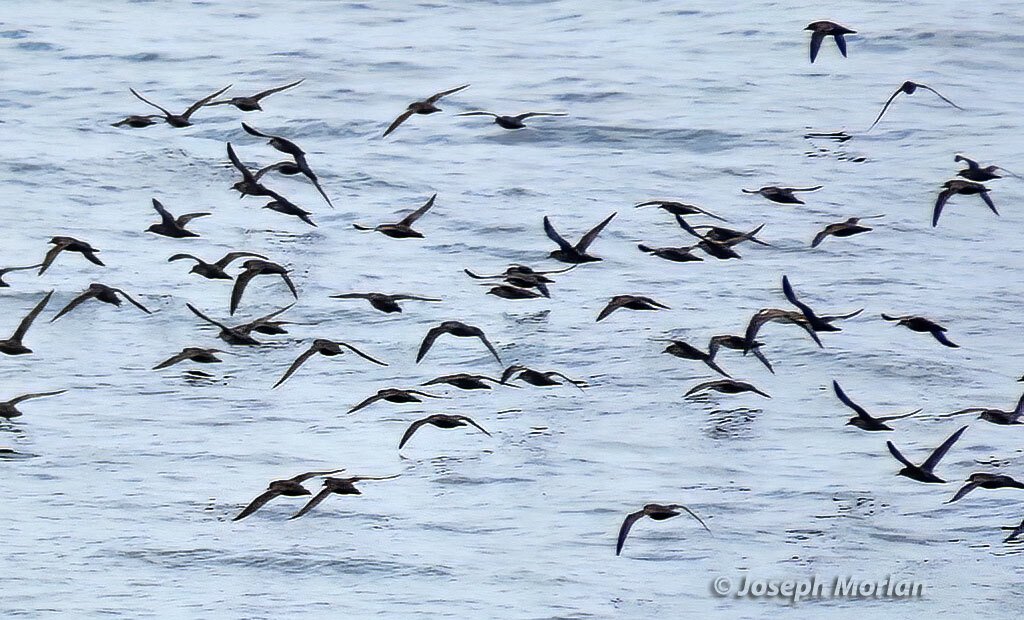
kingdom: Animalia
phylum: Chordata
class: Aves
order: Procellariiformes
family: Procellariidae
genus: Puffinus
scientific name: Puffinus griseus
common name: Sooty shearwater
